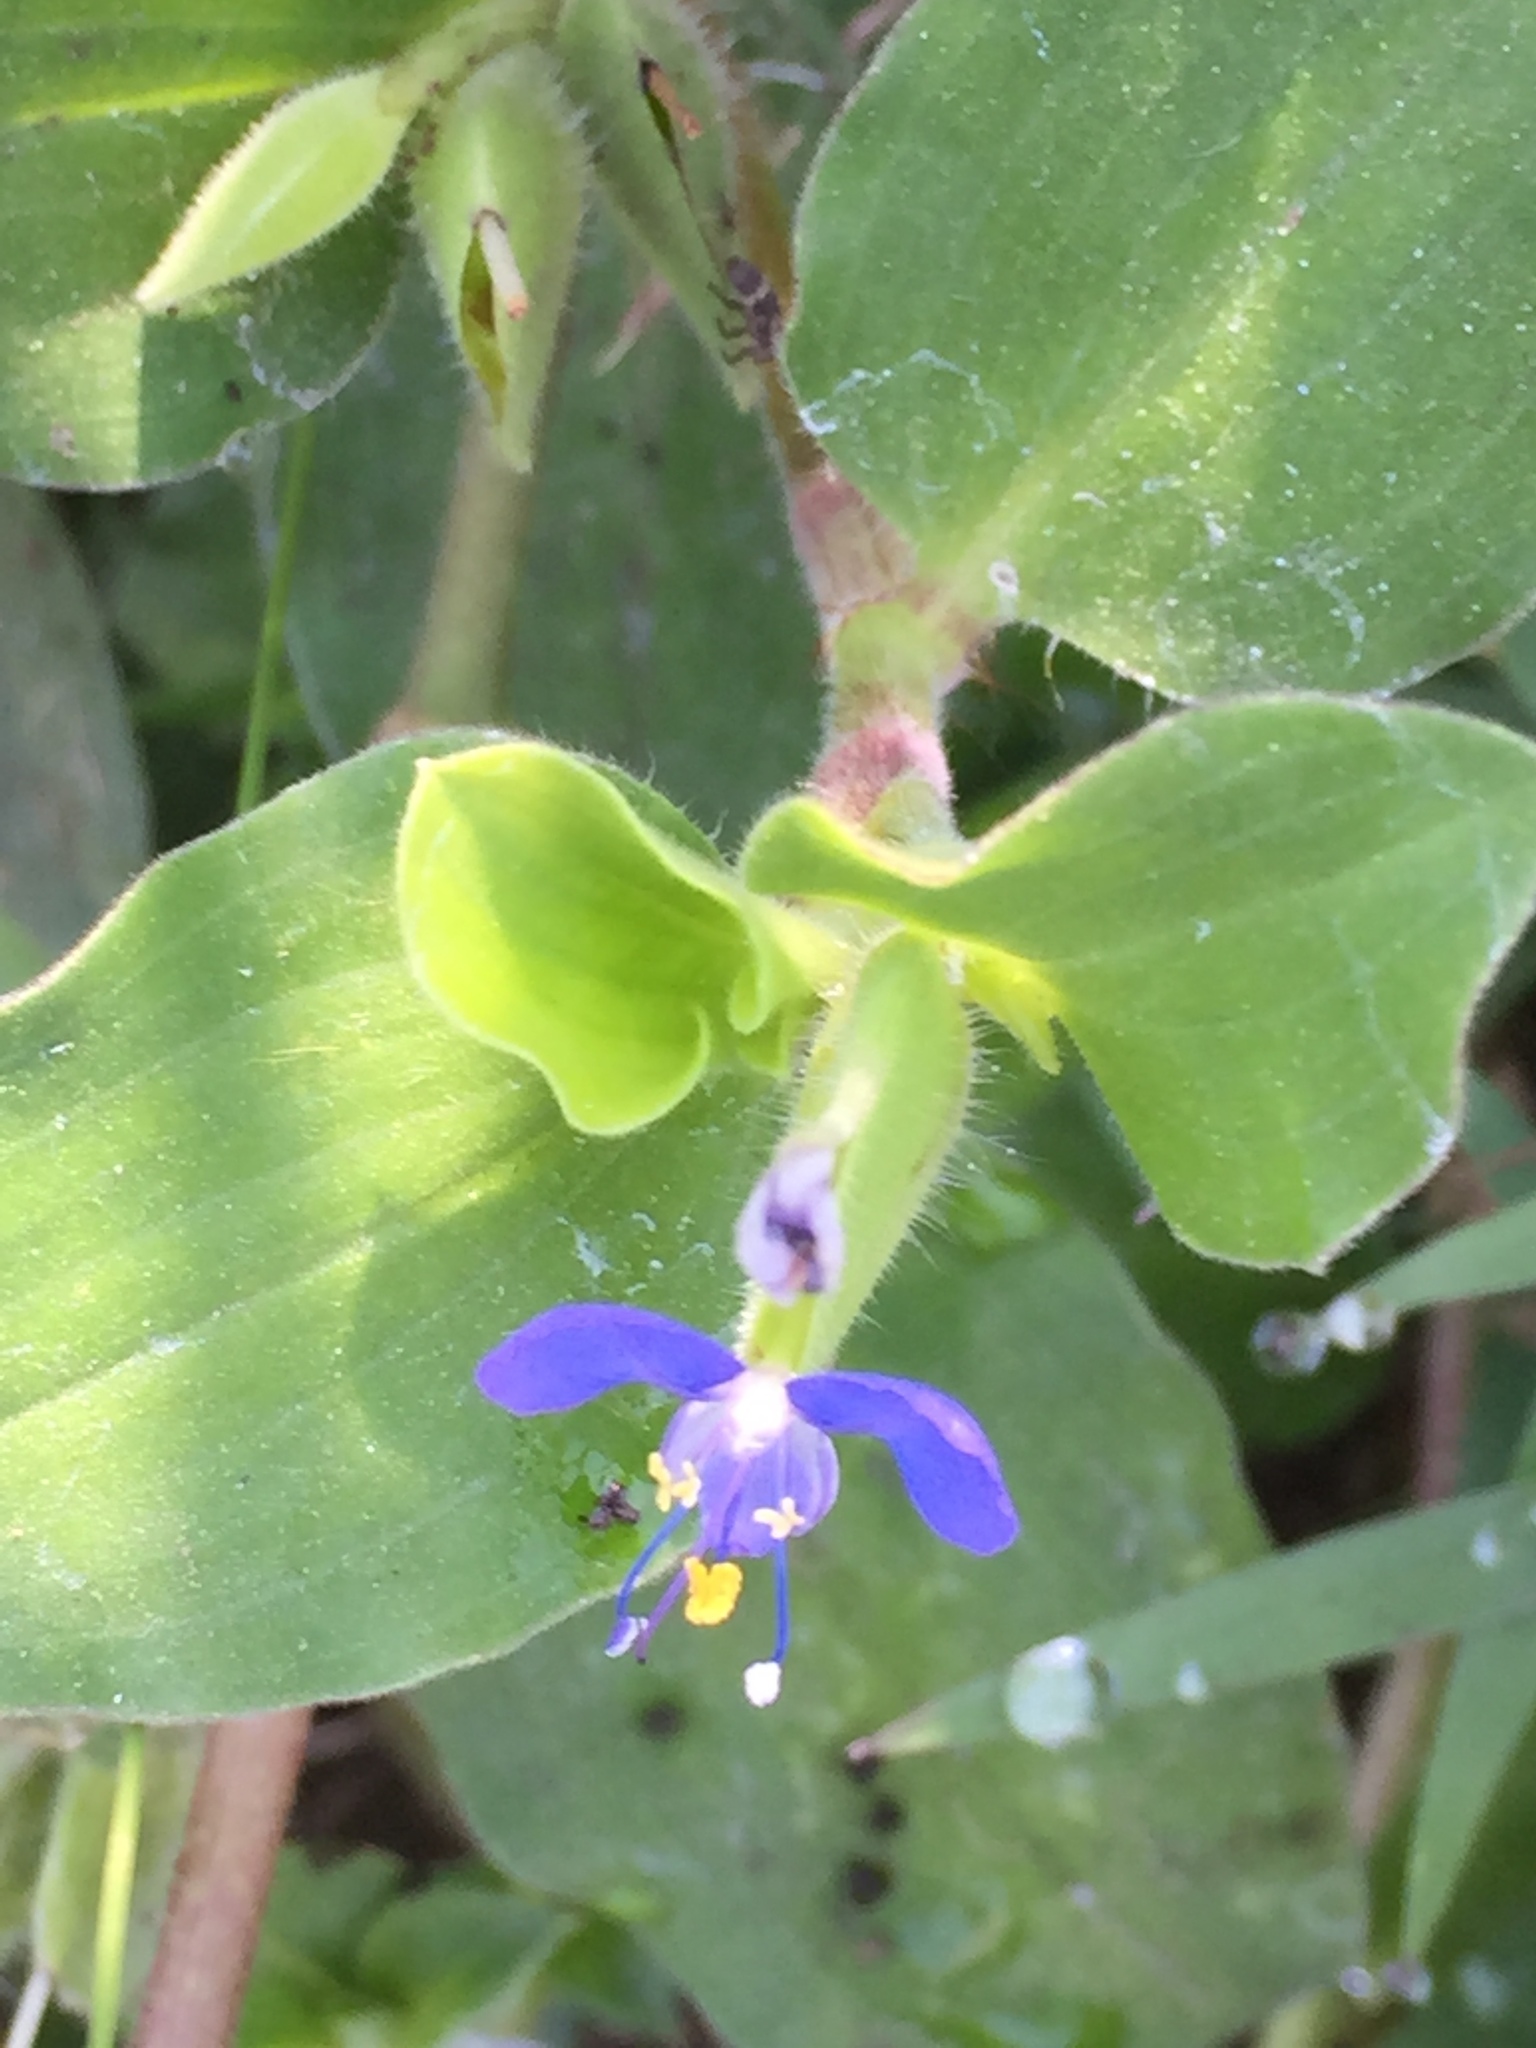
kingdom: Plantae
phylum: Tracheophyta
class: Liliopsida
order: Commelinales
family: Commelinaceae
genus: Commelina
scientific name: Commelina benghalensis
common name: Jio
